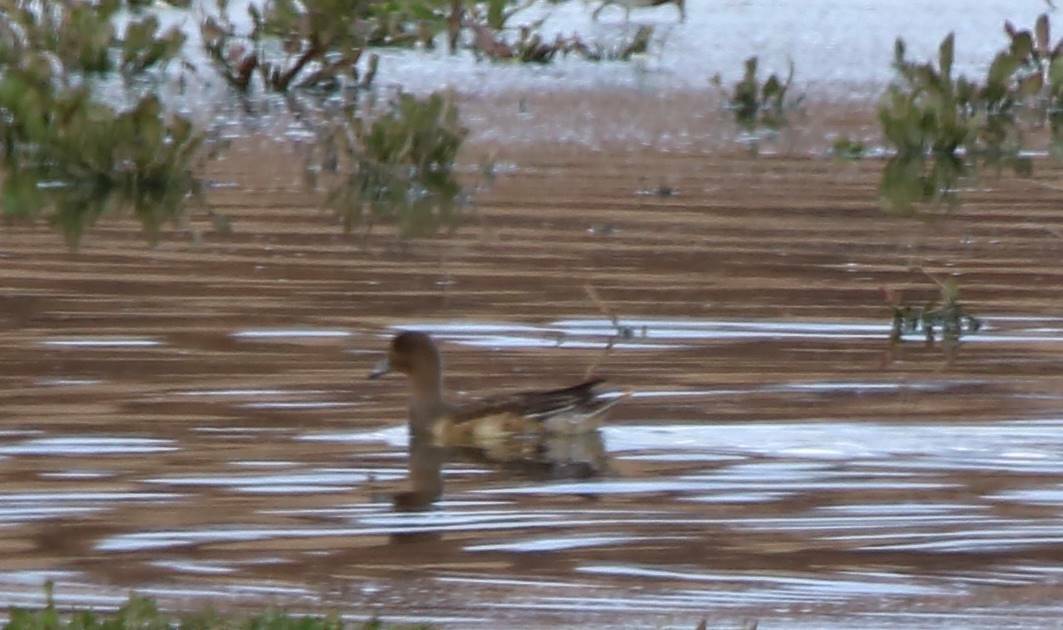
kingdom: Animalia
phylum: Chordata
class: Aves
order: Anseriformes
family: Anatidae
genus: Mareca
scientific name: Mareca penelope
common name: Eurasian wigeon
